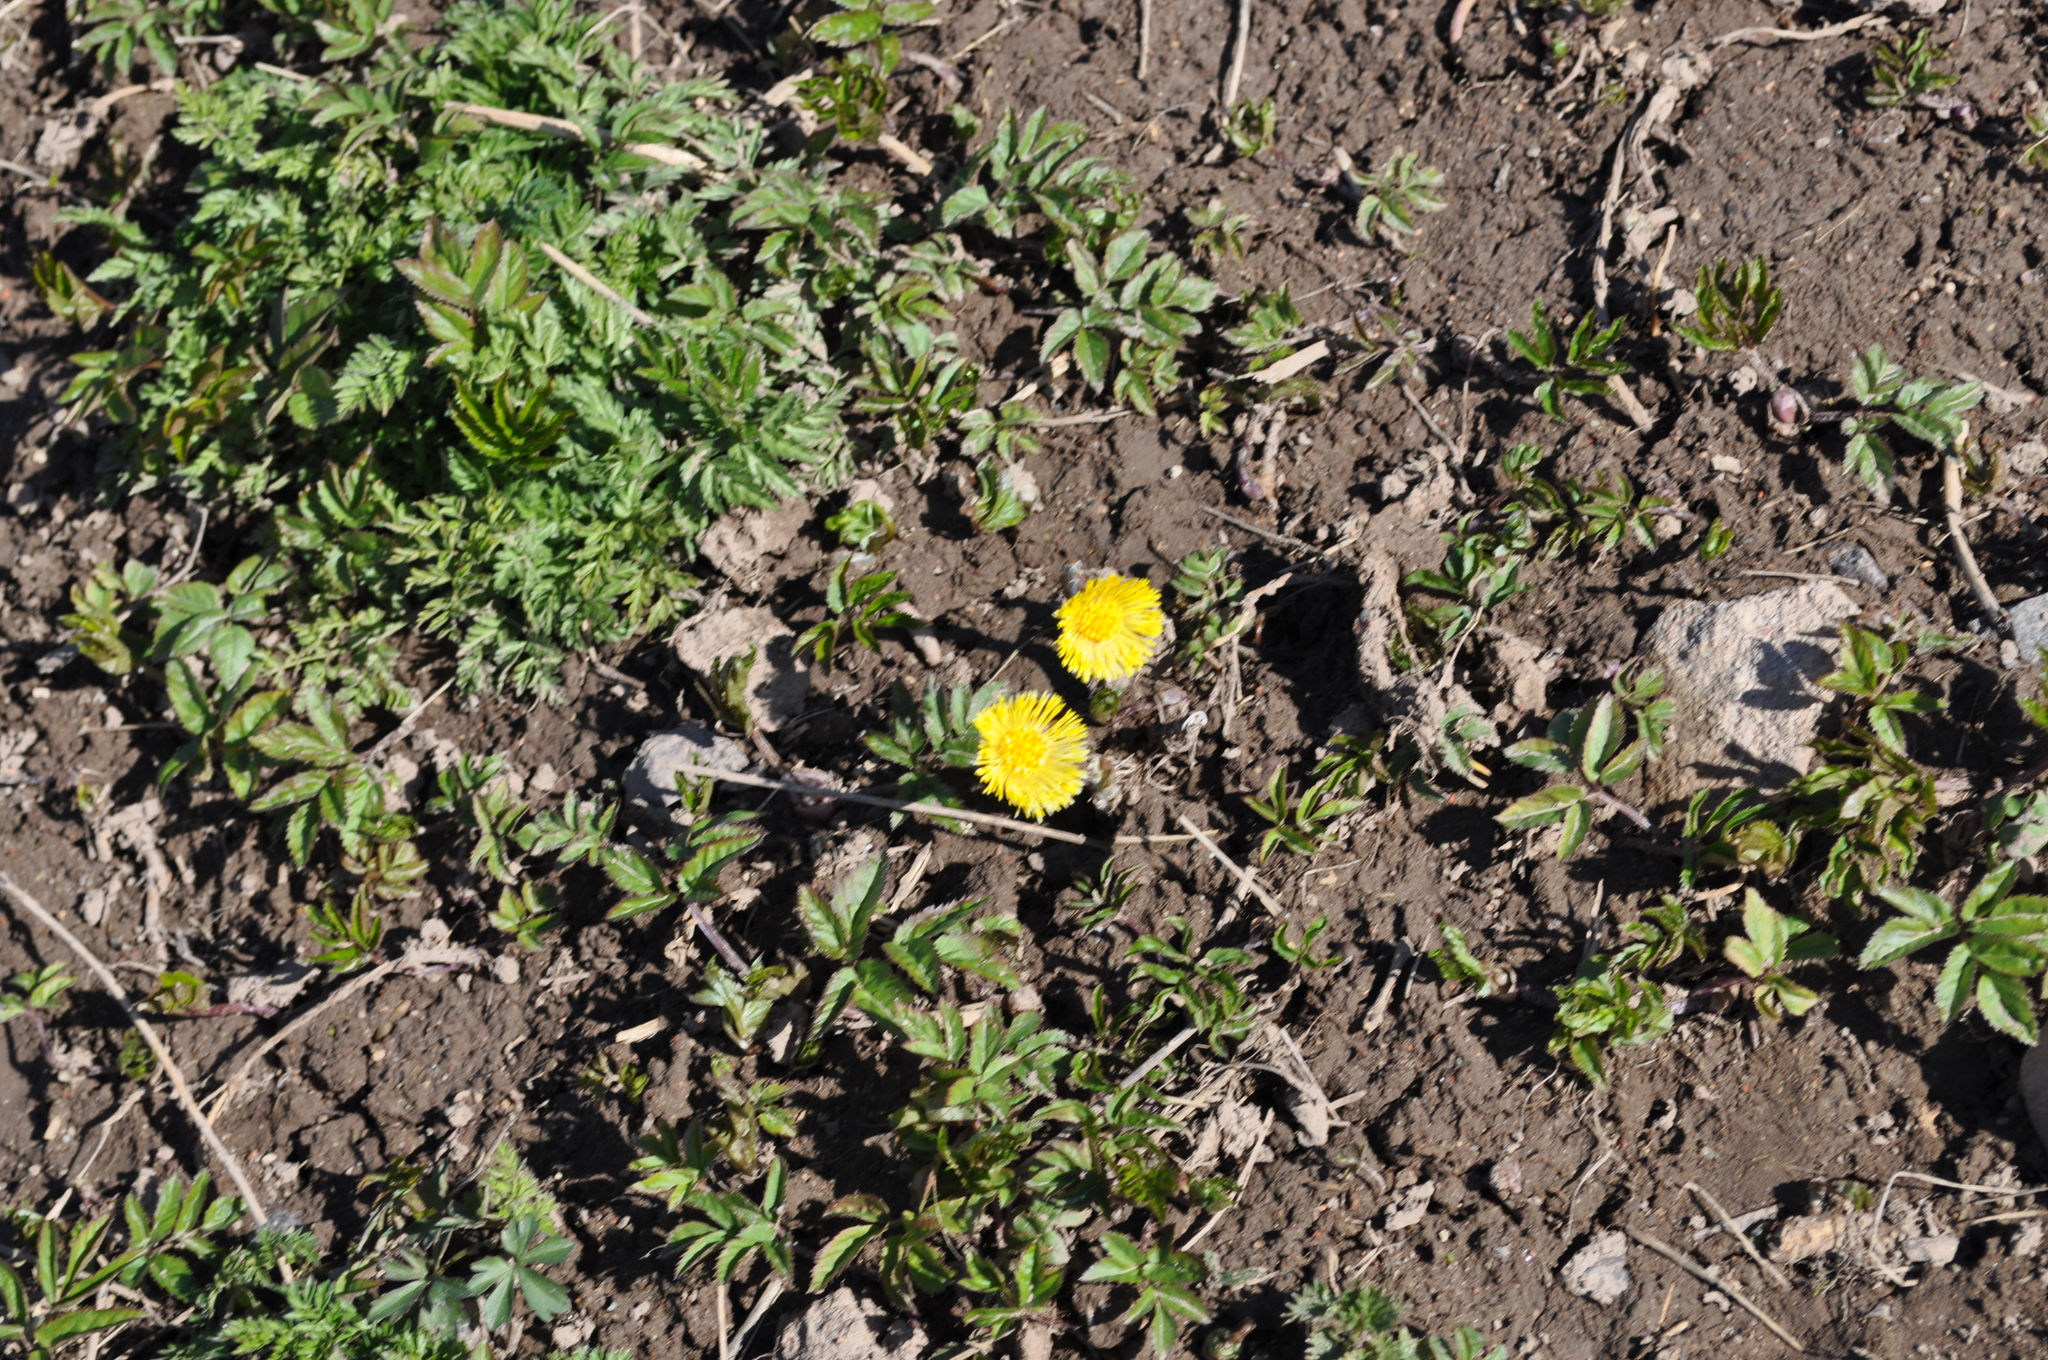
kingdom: Plantae
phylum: Tracheophyta
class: Magnoliopsida
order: Asterales
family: Asteraceae
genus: Tussilago
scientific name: Tussilago farfara
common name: Coltsfoot
